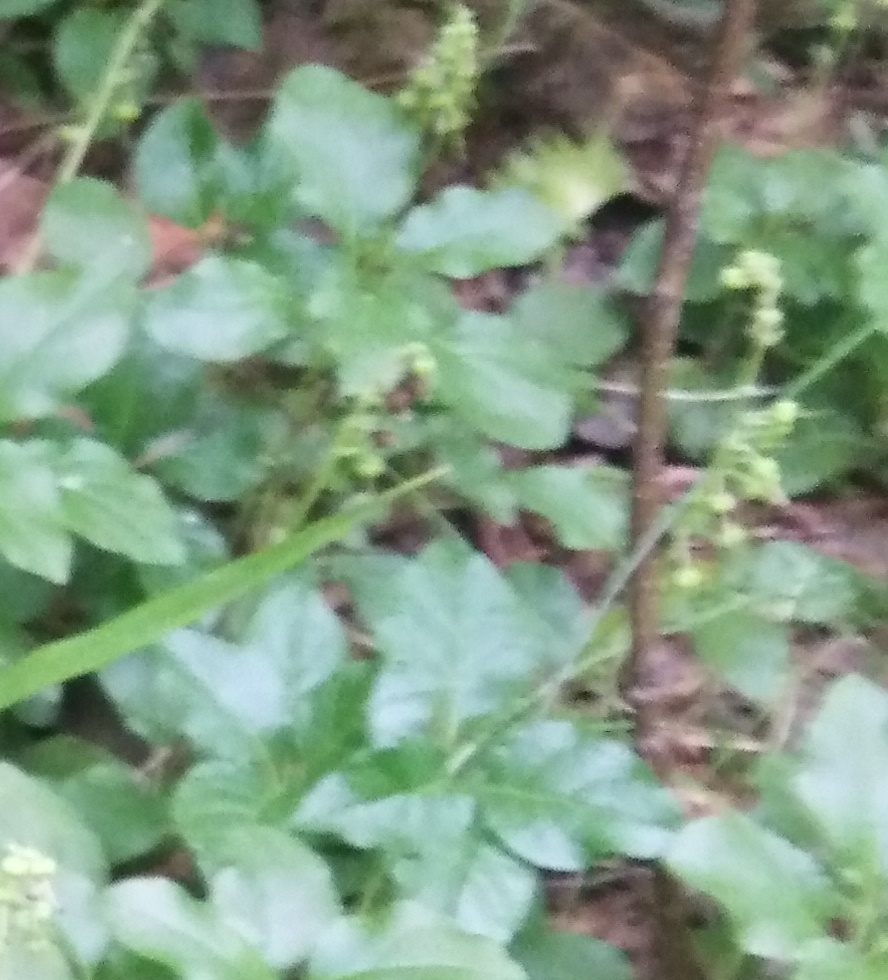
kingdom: Plantae
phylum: Tracheophyta
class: Magnoliopsida
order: Ericales
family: Ericaceae
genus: Orthilia
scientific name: Orthilia secunda
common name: One-sided orthilia
